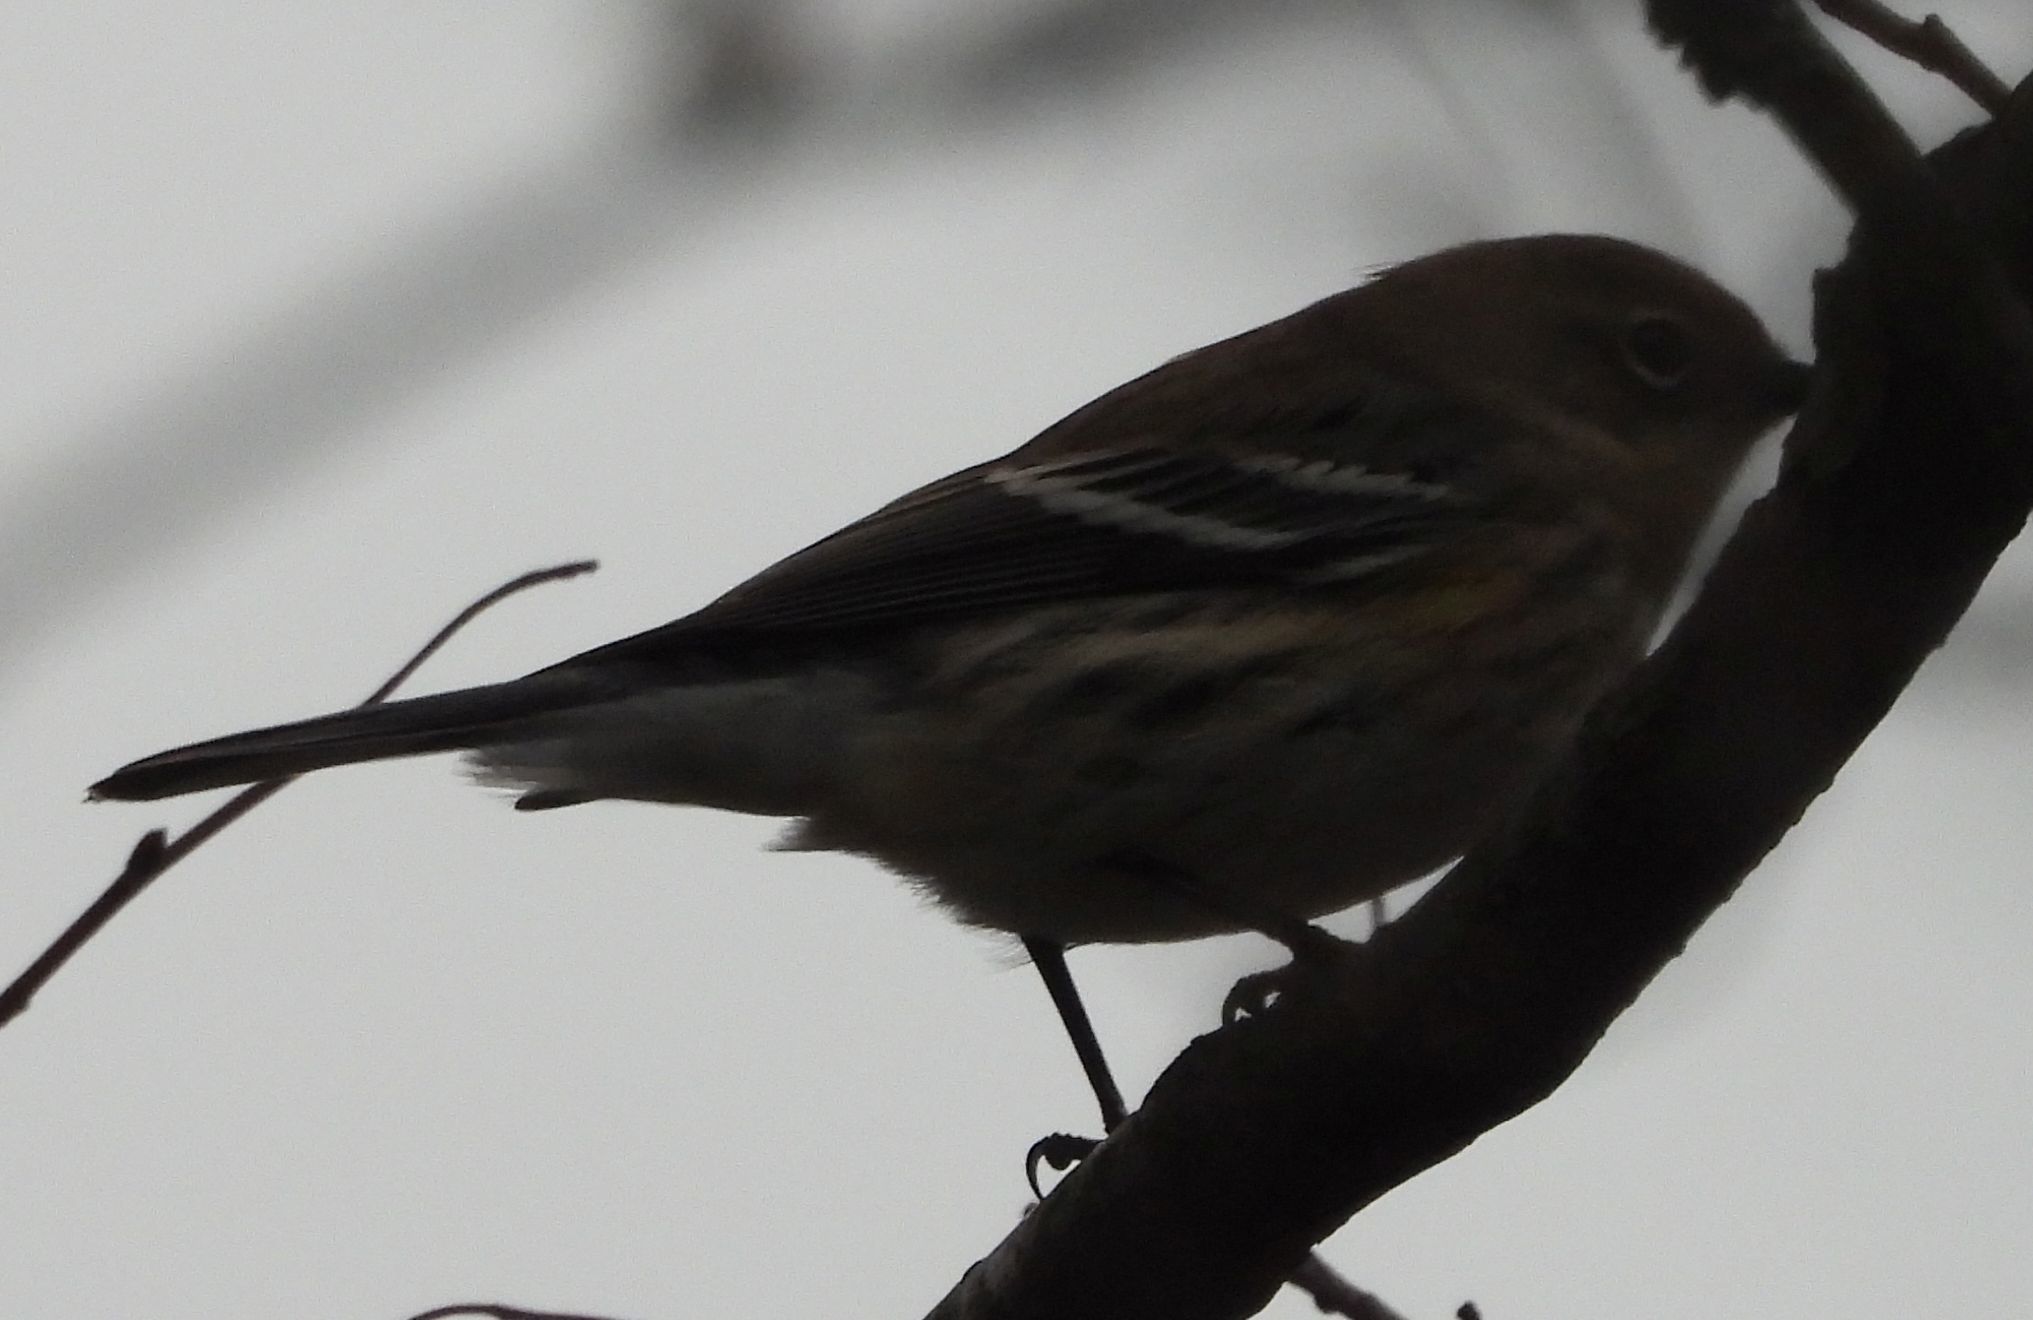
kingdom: Animalia
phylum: Chordata
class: Aves
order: Passeriformes
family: Parulidae
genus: Setophaga
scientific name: Setophaga coronata
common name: Myrtle warbler
